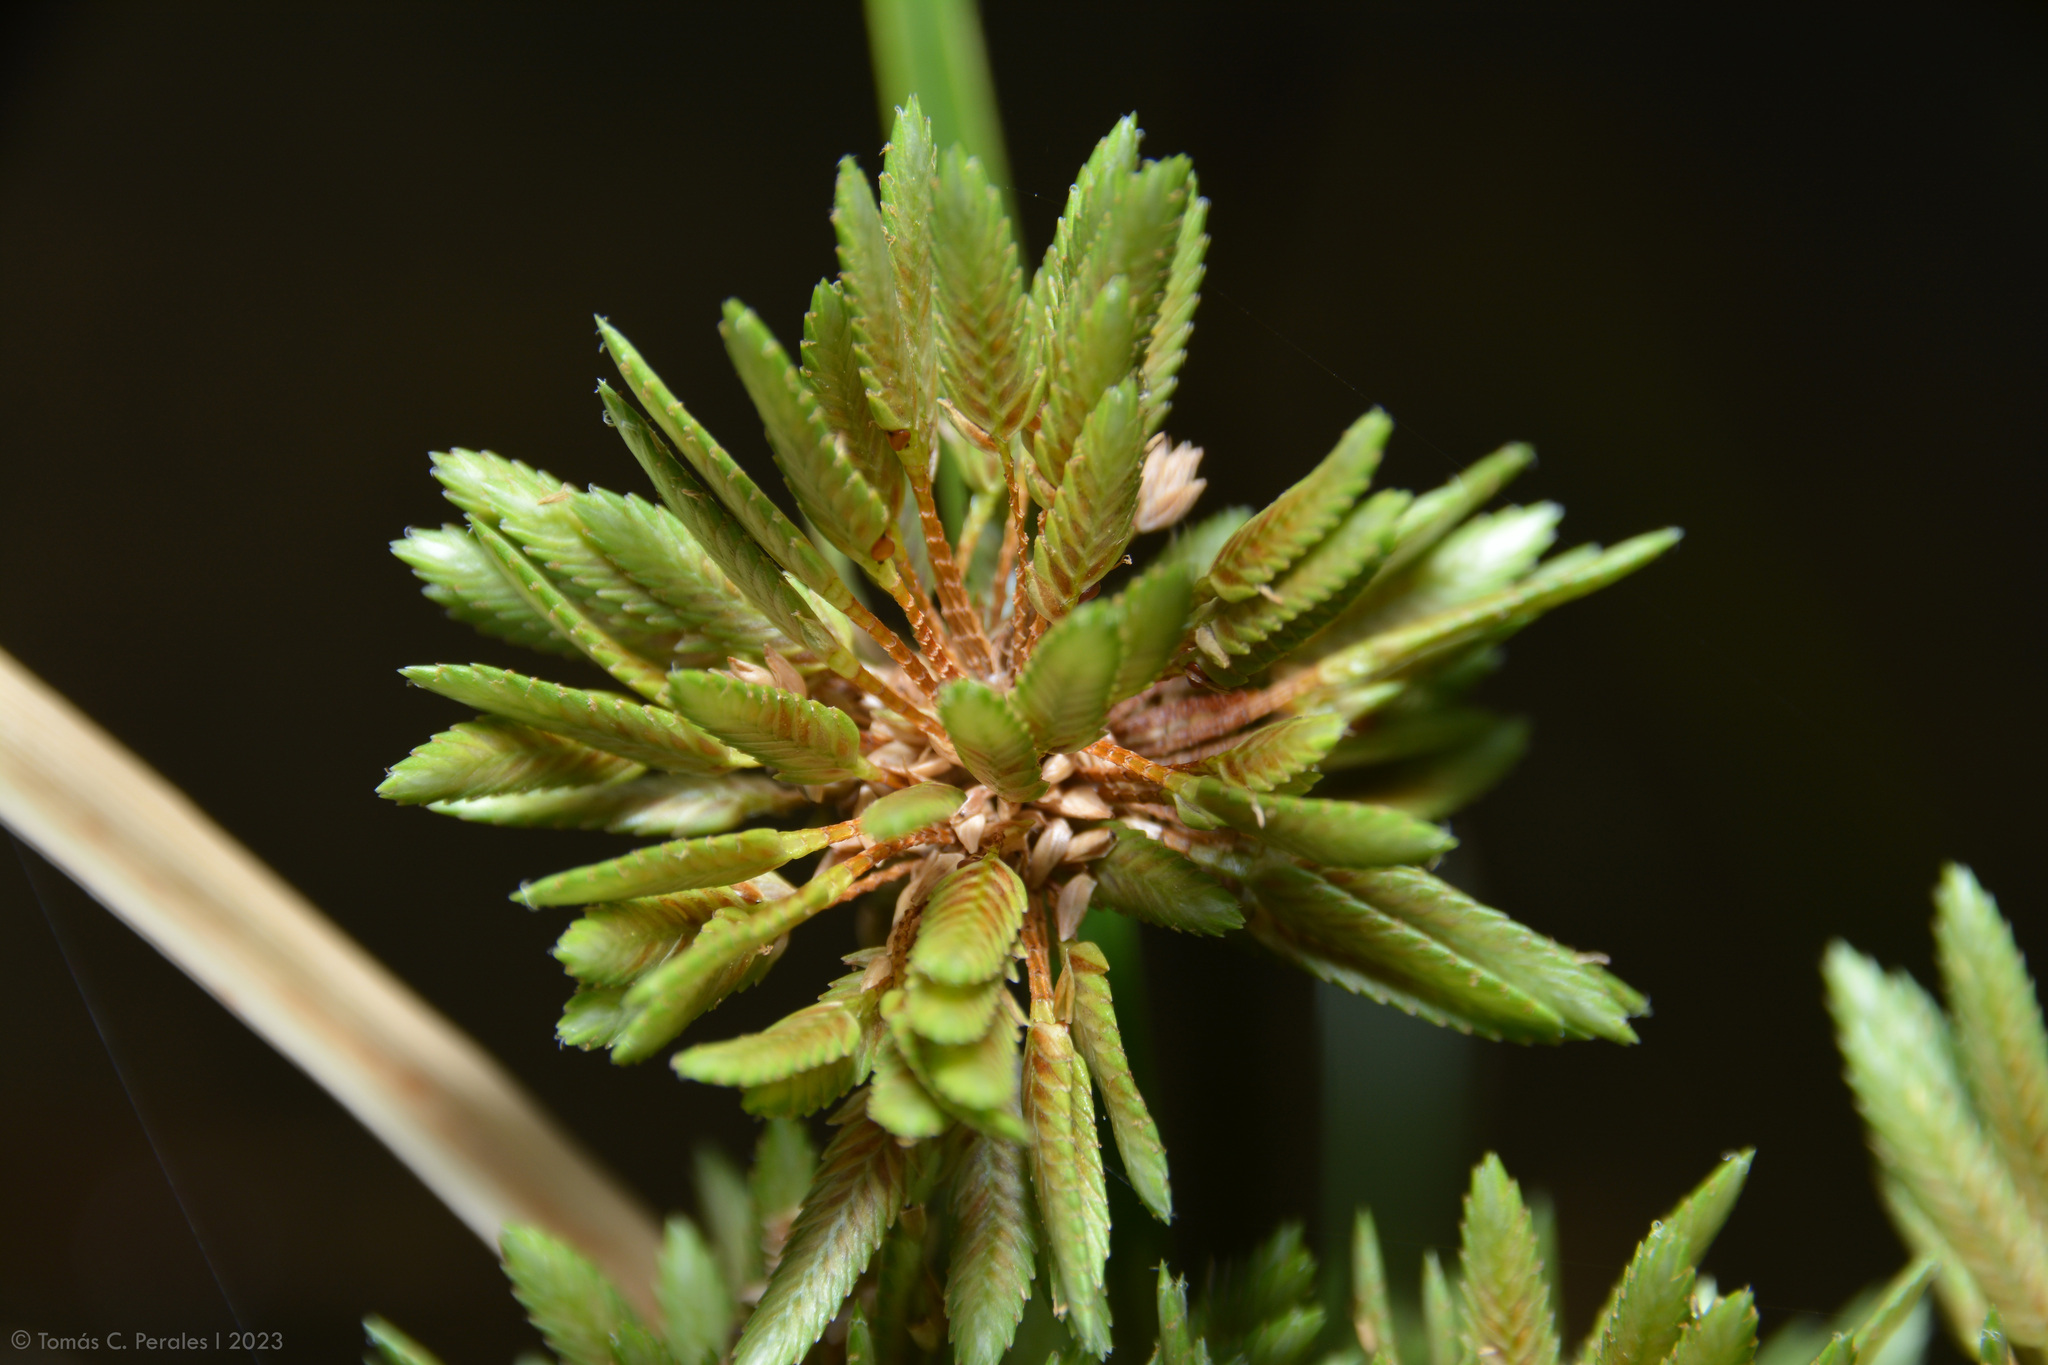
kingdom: Plantae
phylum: Tracheophyta
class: Liliopsida
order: Poales
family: Cyperaceae
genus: Cyperus
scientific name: Cyperus eragrostis
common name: Tall flatsedge
